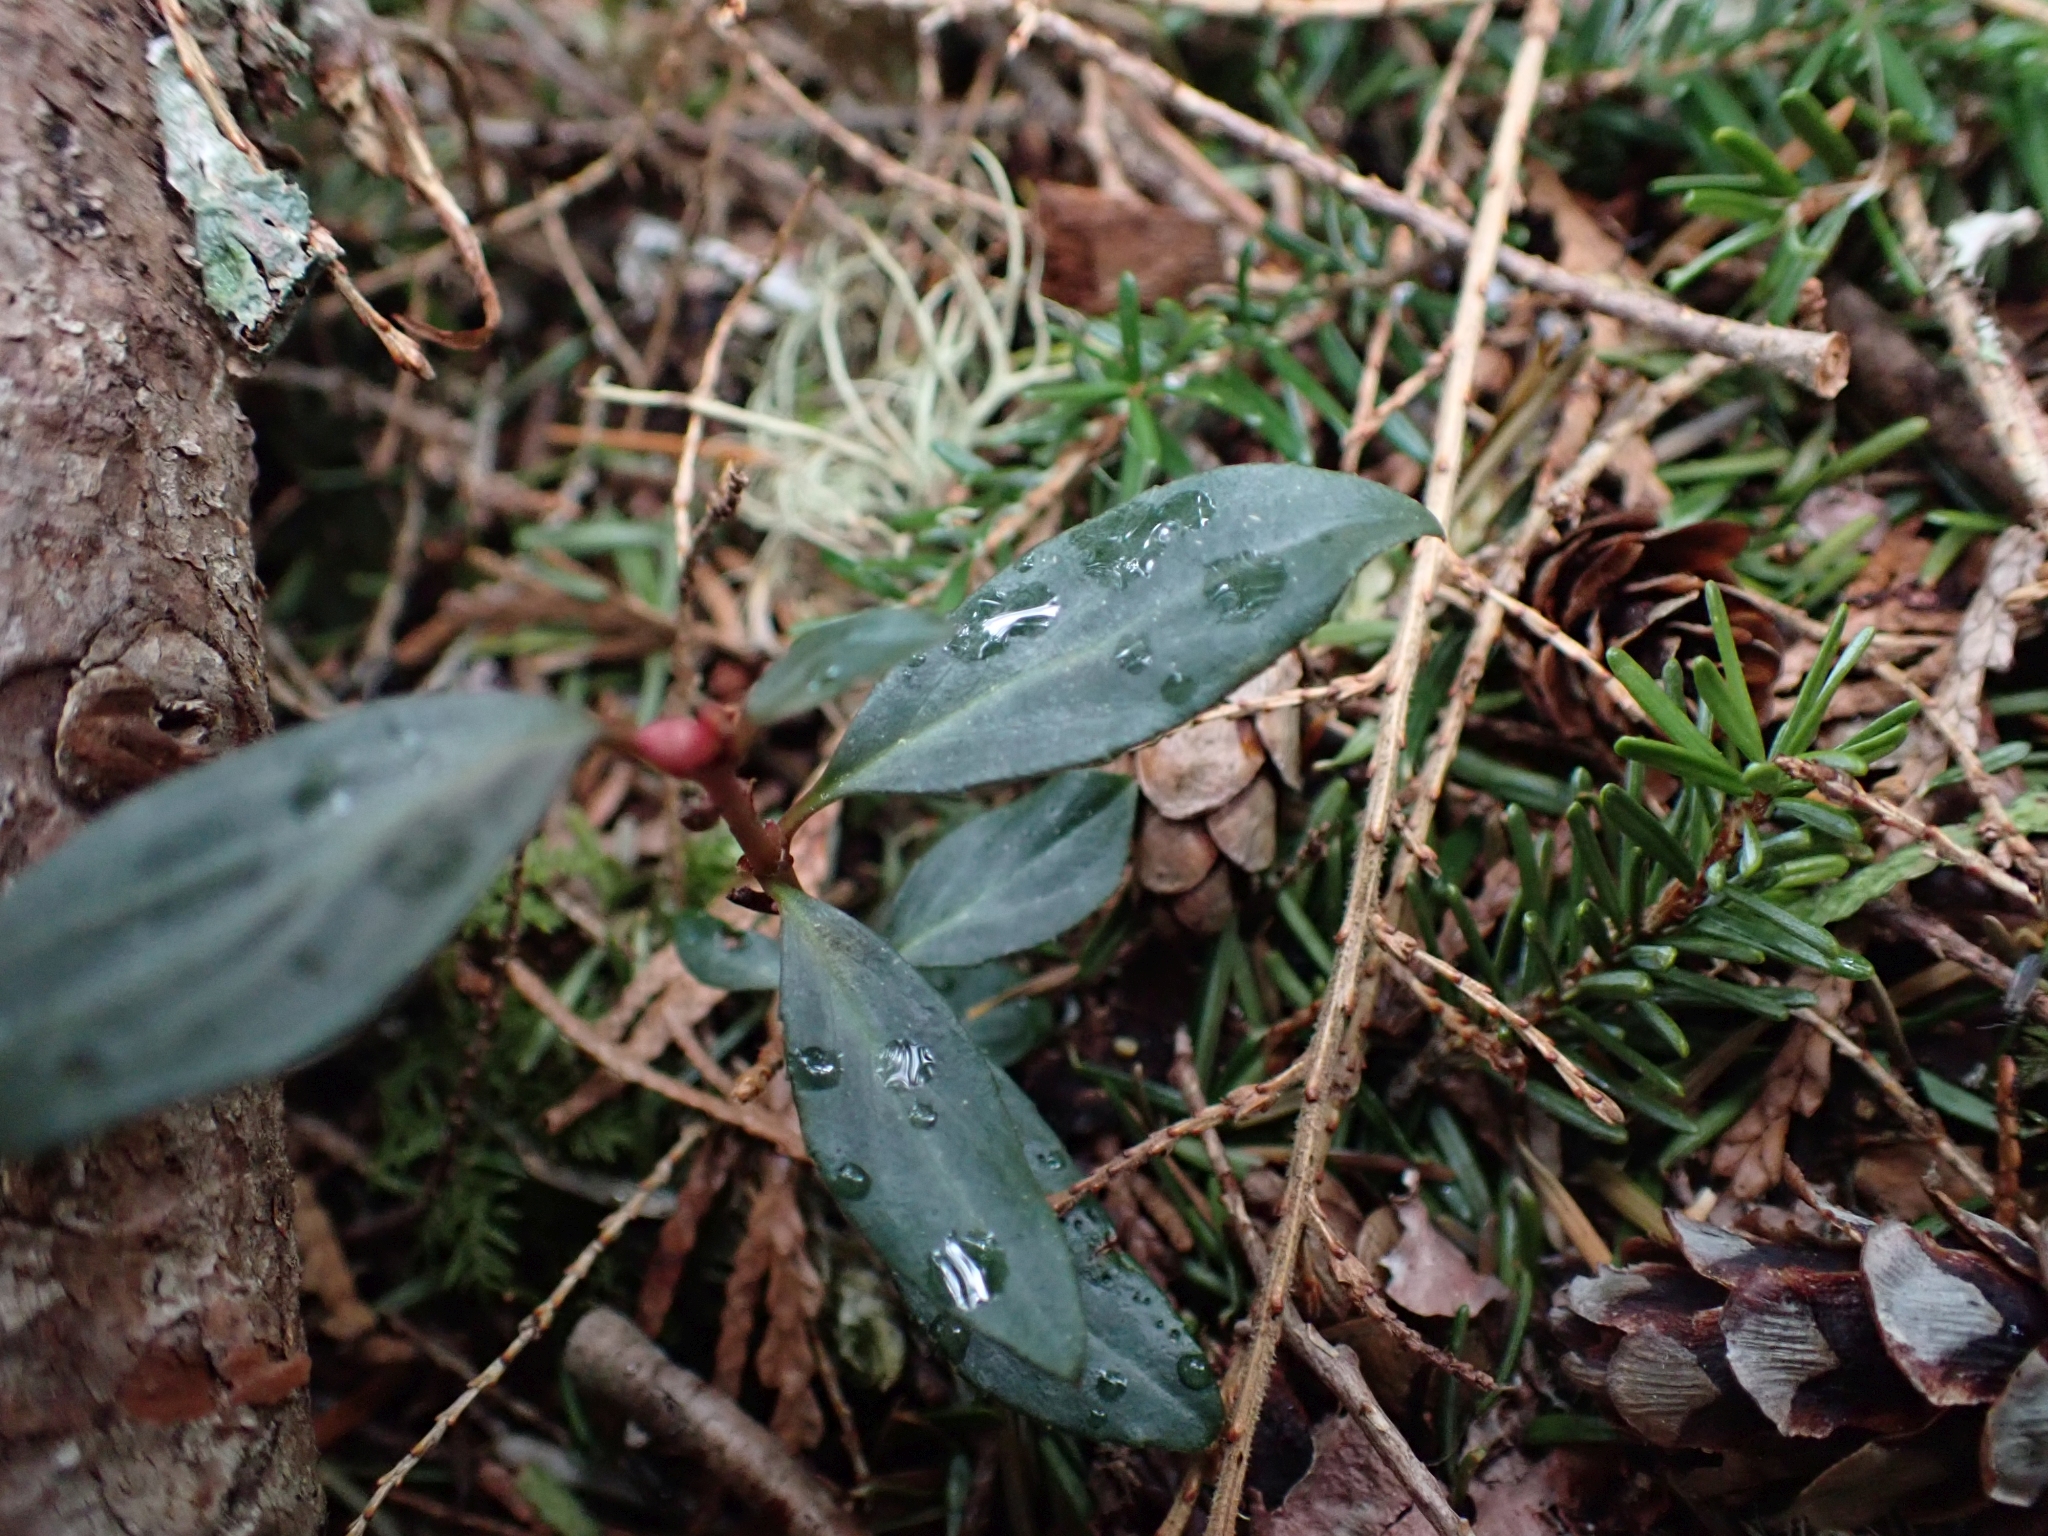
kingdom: Plantae
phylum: Tracheophyta
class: Magnoliopsida
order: Ericales
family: Ericaceae
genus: Chimaphila
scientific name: Chimaphila menziesii
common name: Menzies' pipsissewa
